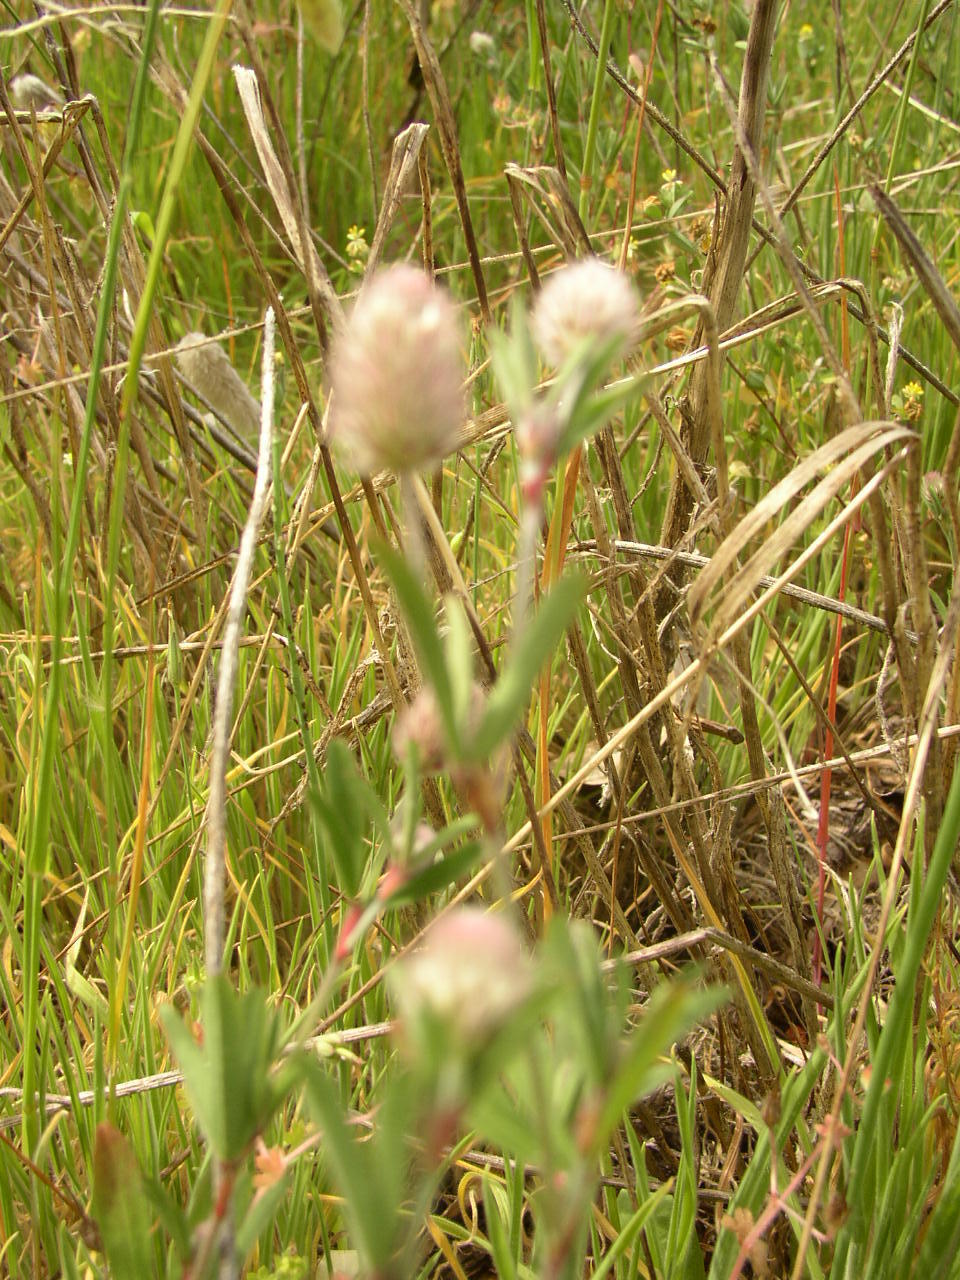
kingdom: Plantae
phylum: Tracheophyta
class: Magnoliopsida
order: Fabales
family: Fabaceae
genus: Trifolium
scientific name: Trifolium arvense
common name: Hare's-foot clover
